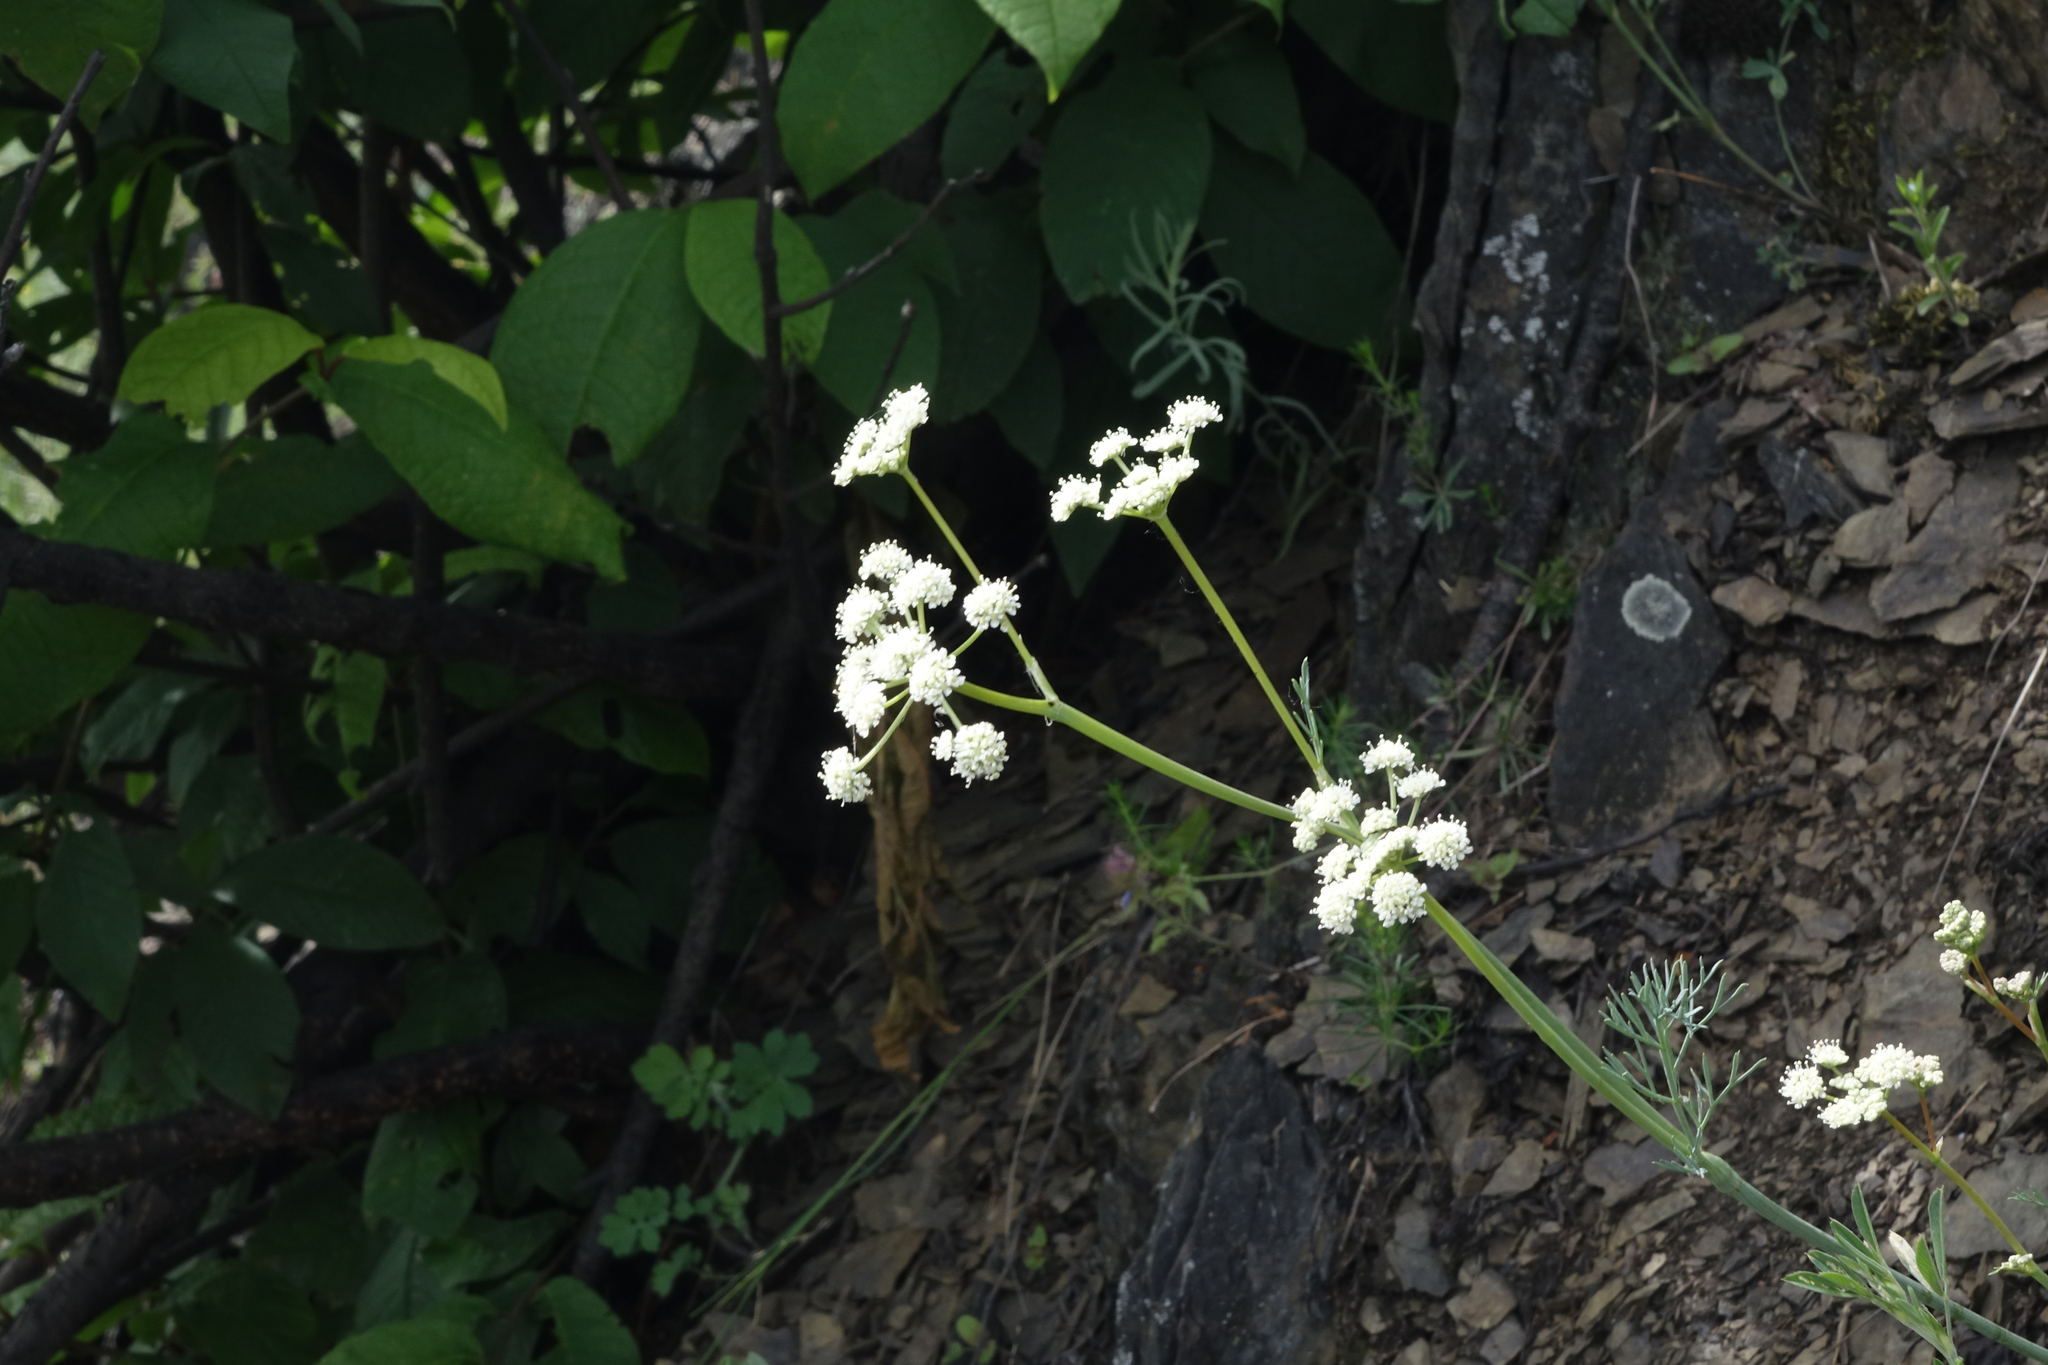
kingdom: Plantae
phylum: Tracheophyta
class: Magnoliopsida
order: Apiales
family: Apiaceae
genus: Seseli
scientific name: Seseli ledebourii
